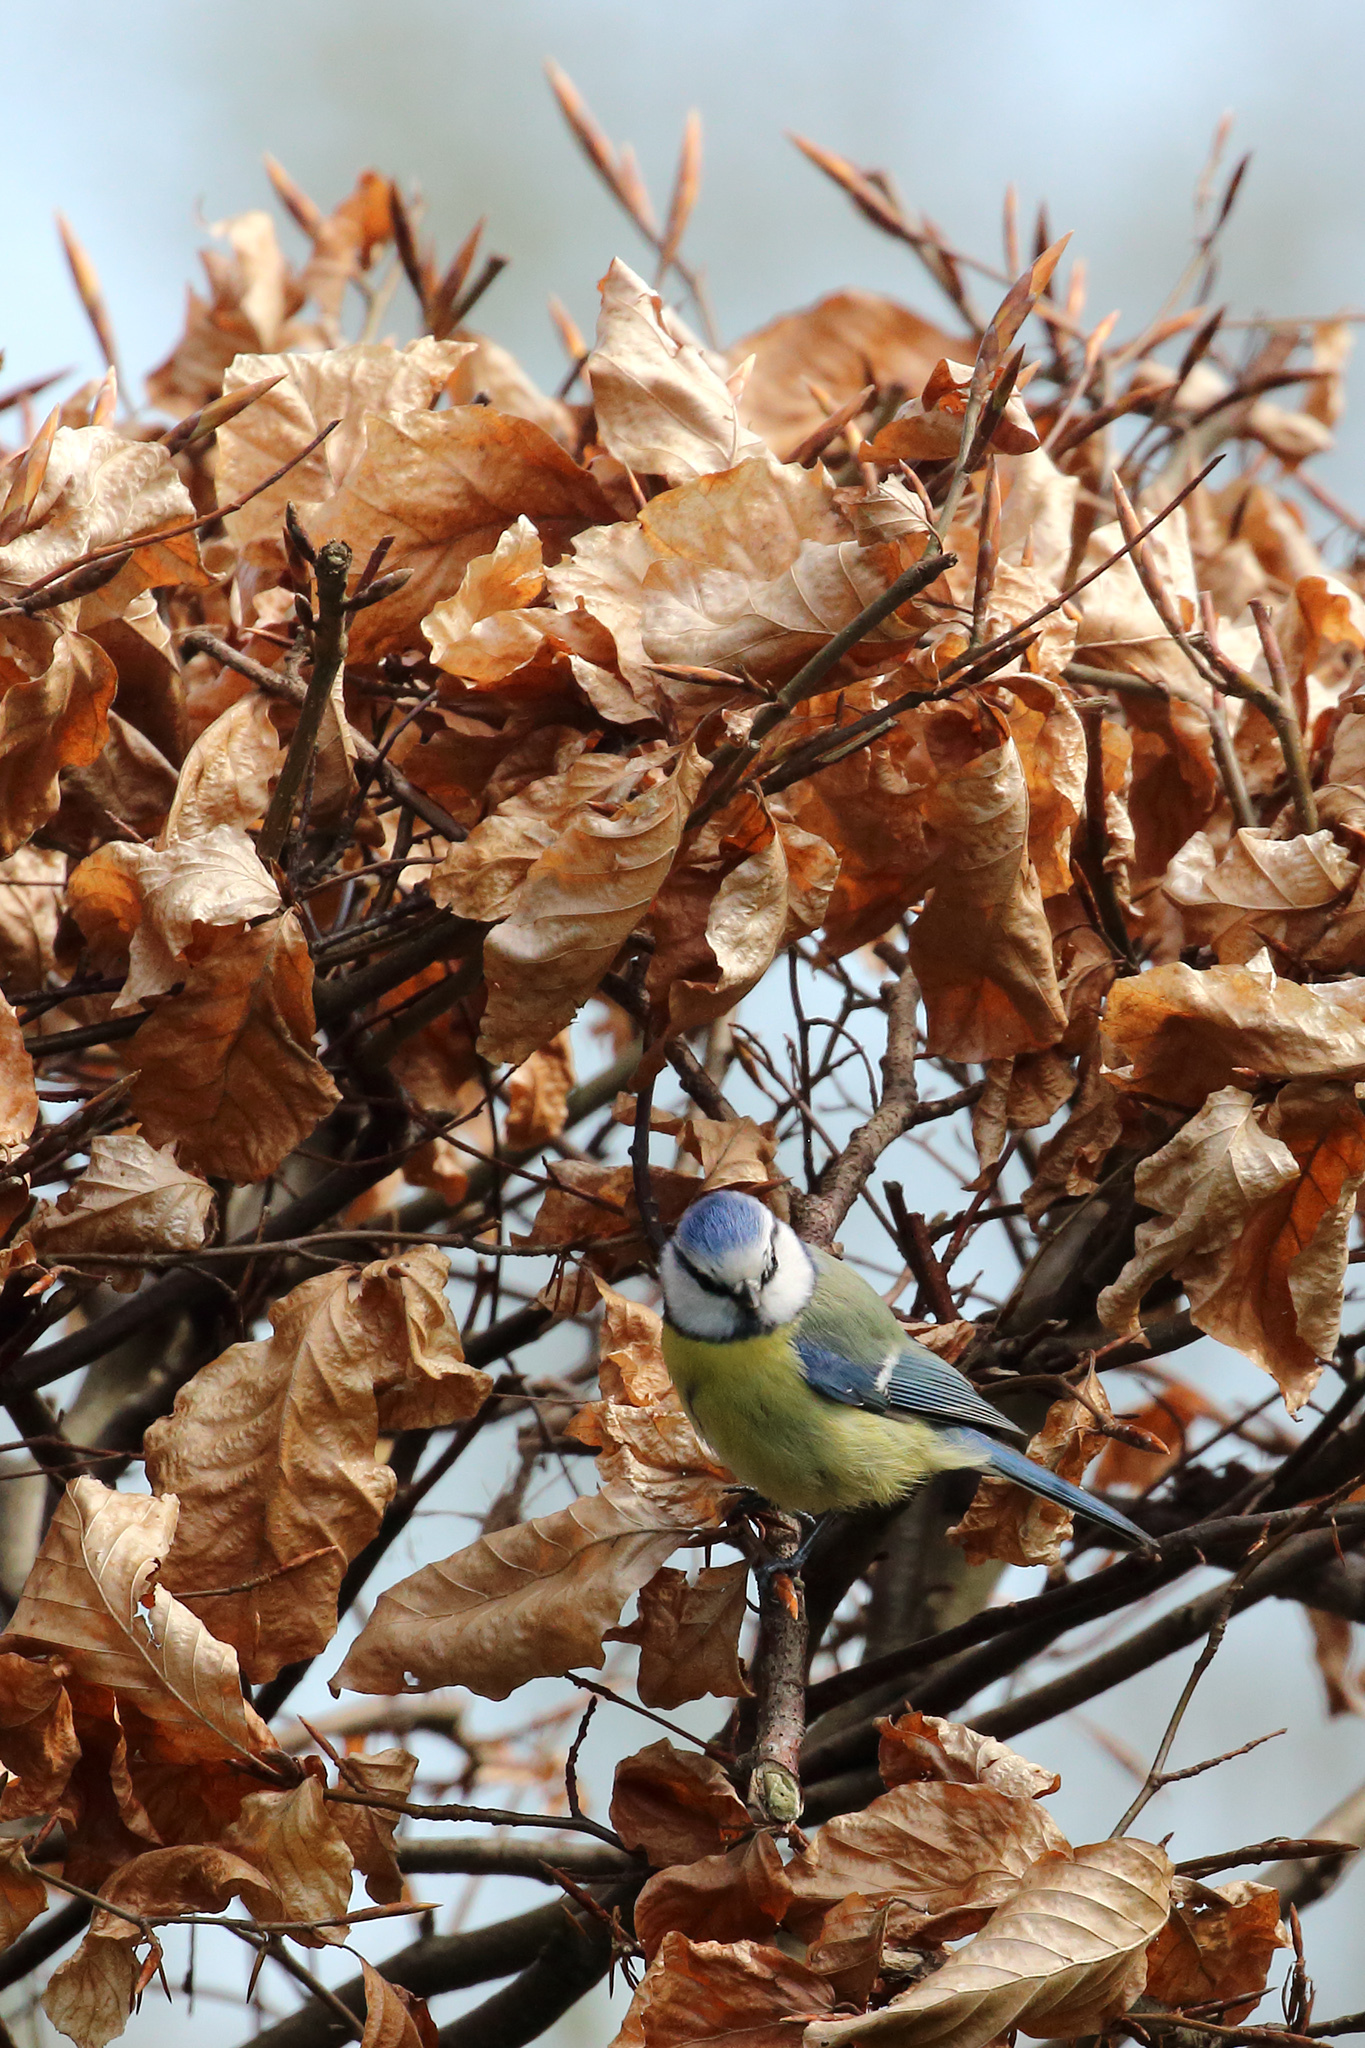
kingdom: Animalia
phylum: Chordata
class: Aves
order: Passeriformes
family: Paridae
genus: Cyanistes
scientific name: Cyanistes caeruleus
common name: Eurasian blue tit
